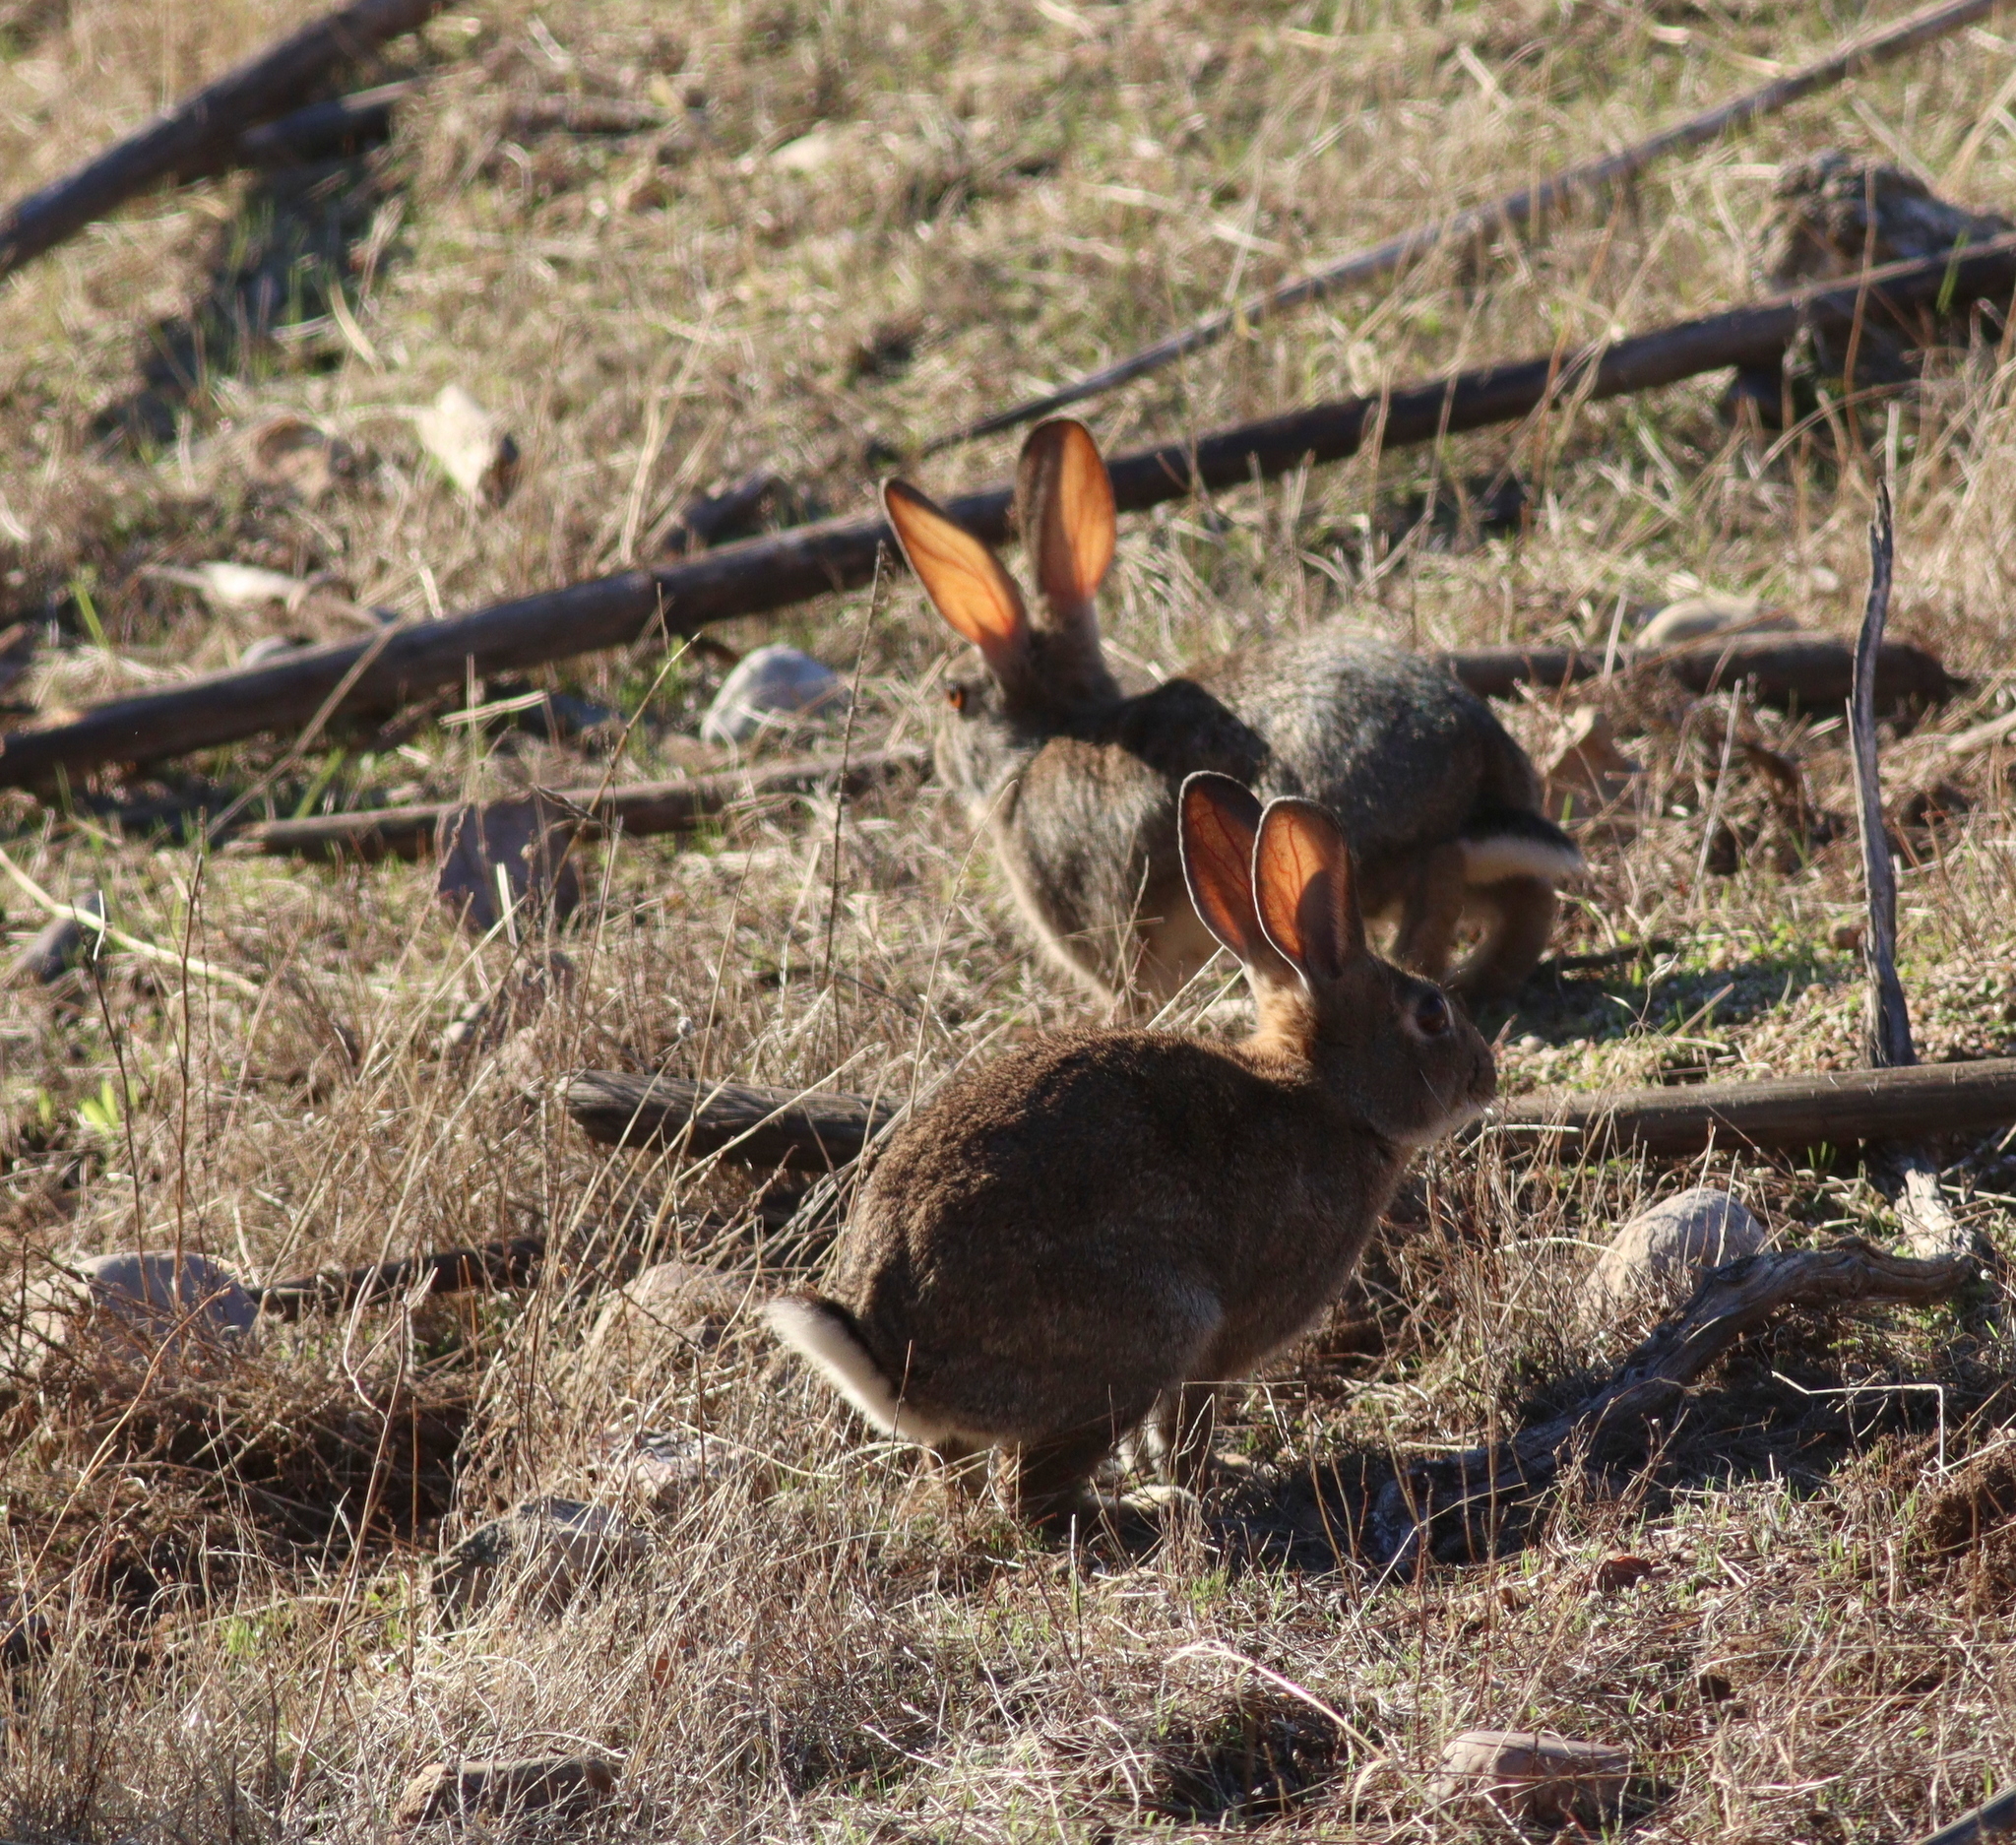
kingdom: Animalia
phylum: Chordata
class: Mammalia
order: Lagomorpha
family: Leporidae
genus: Oryctolagus
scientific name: Oryctolagus cuniculus
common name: European rabbit
